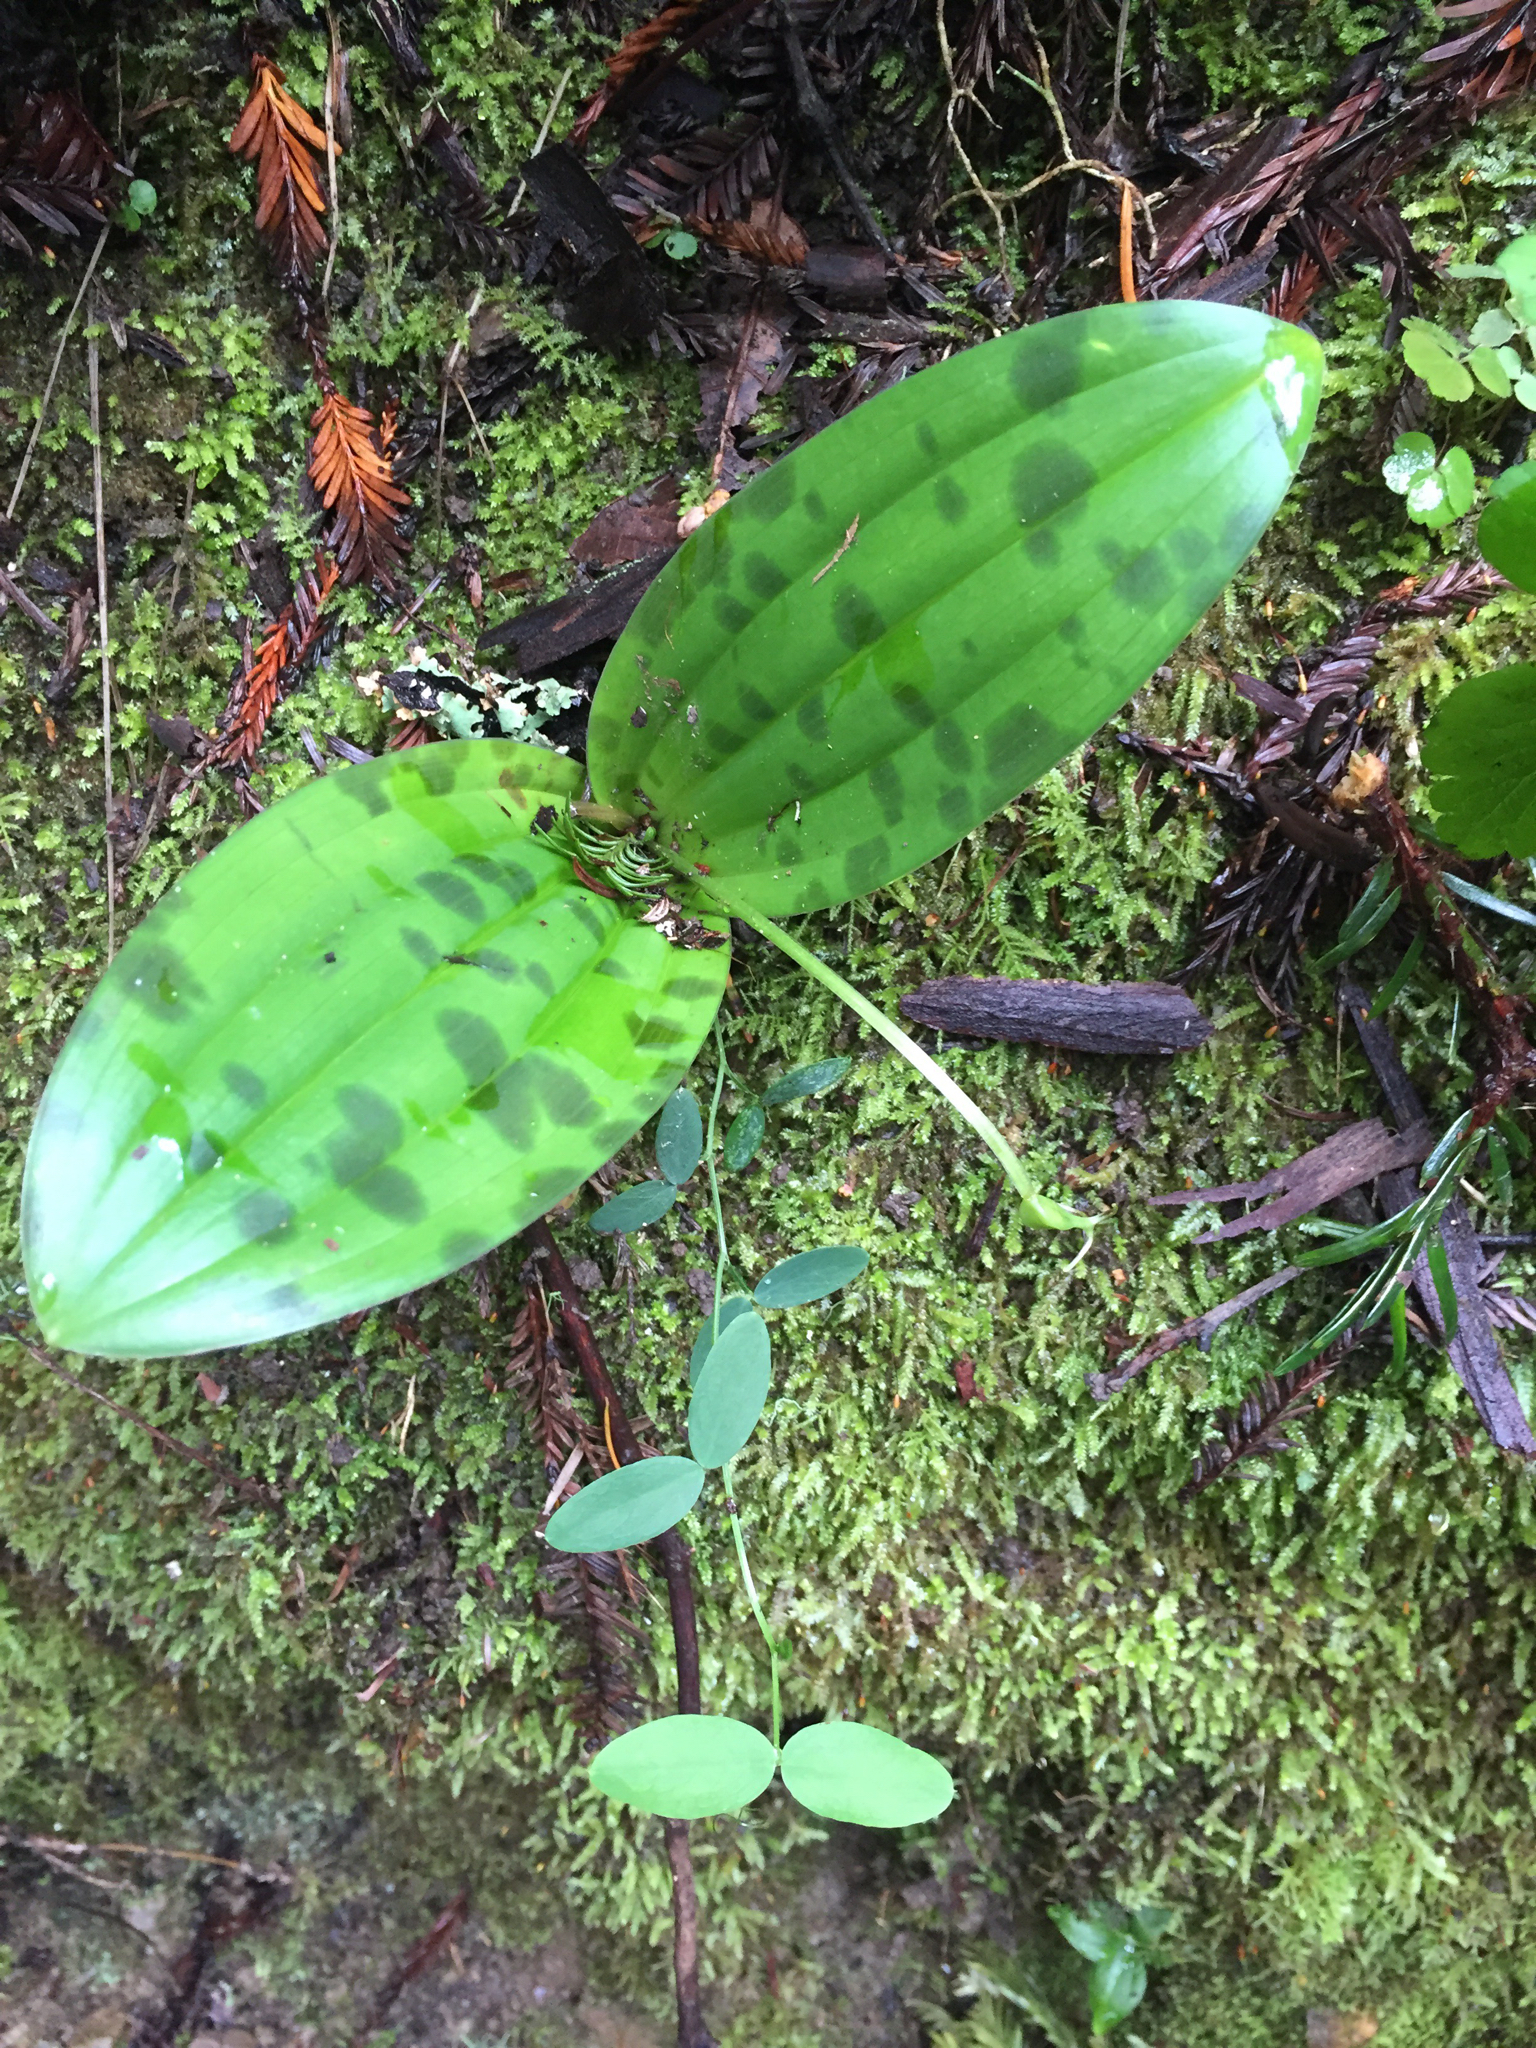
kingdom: Plantae
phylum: Tracheophyta
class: Liliopsida
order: Liliales
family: Liliaceae
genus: Scoliopus
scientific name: Scoliopus bigelovii
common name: Foetid adder's-tongue
